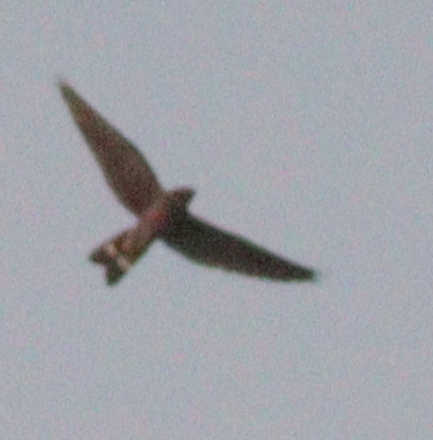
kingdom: Animalia
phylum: Chordata
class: Aves
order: Caprimulgiformes
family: Caprimulgidae
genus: Nyctiprogne
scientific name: Nyctiprogne leucopyga
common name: Band-tailed nighthawk
